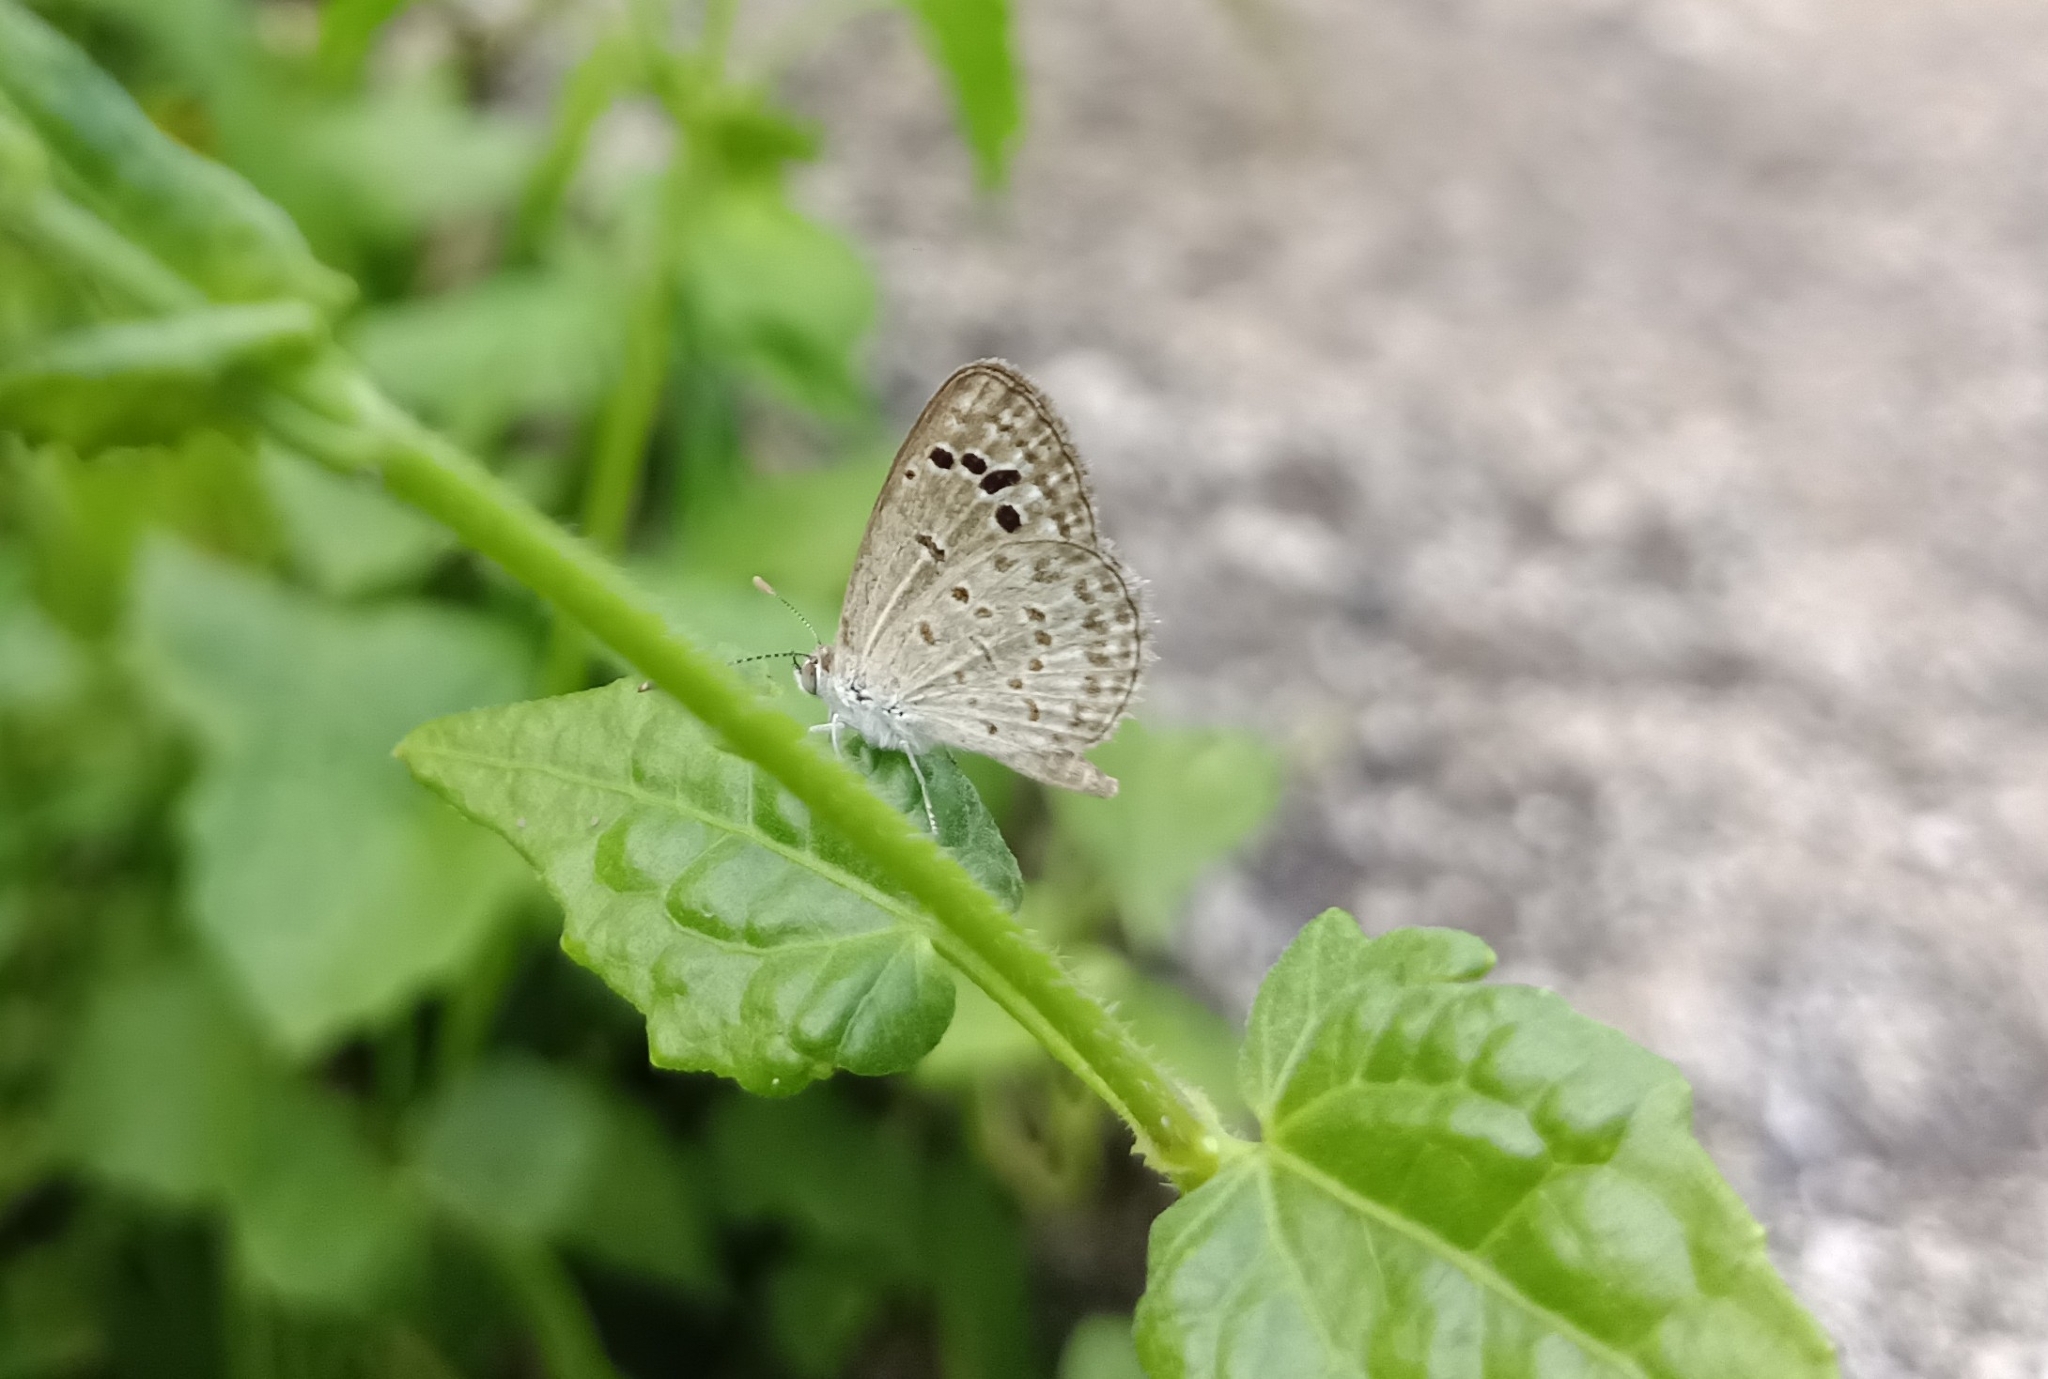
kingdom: Animalia
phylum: Arthropoda
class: Insecta
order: Lepidoptera
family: Lycaenidae
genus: Zizina
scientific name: Zizina otis
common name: Lesser grass blue
